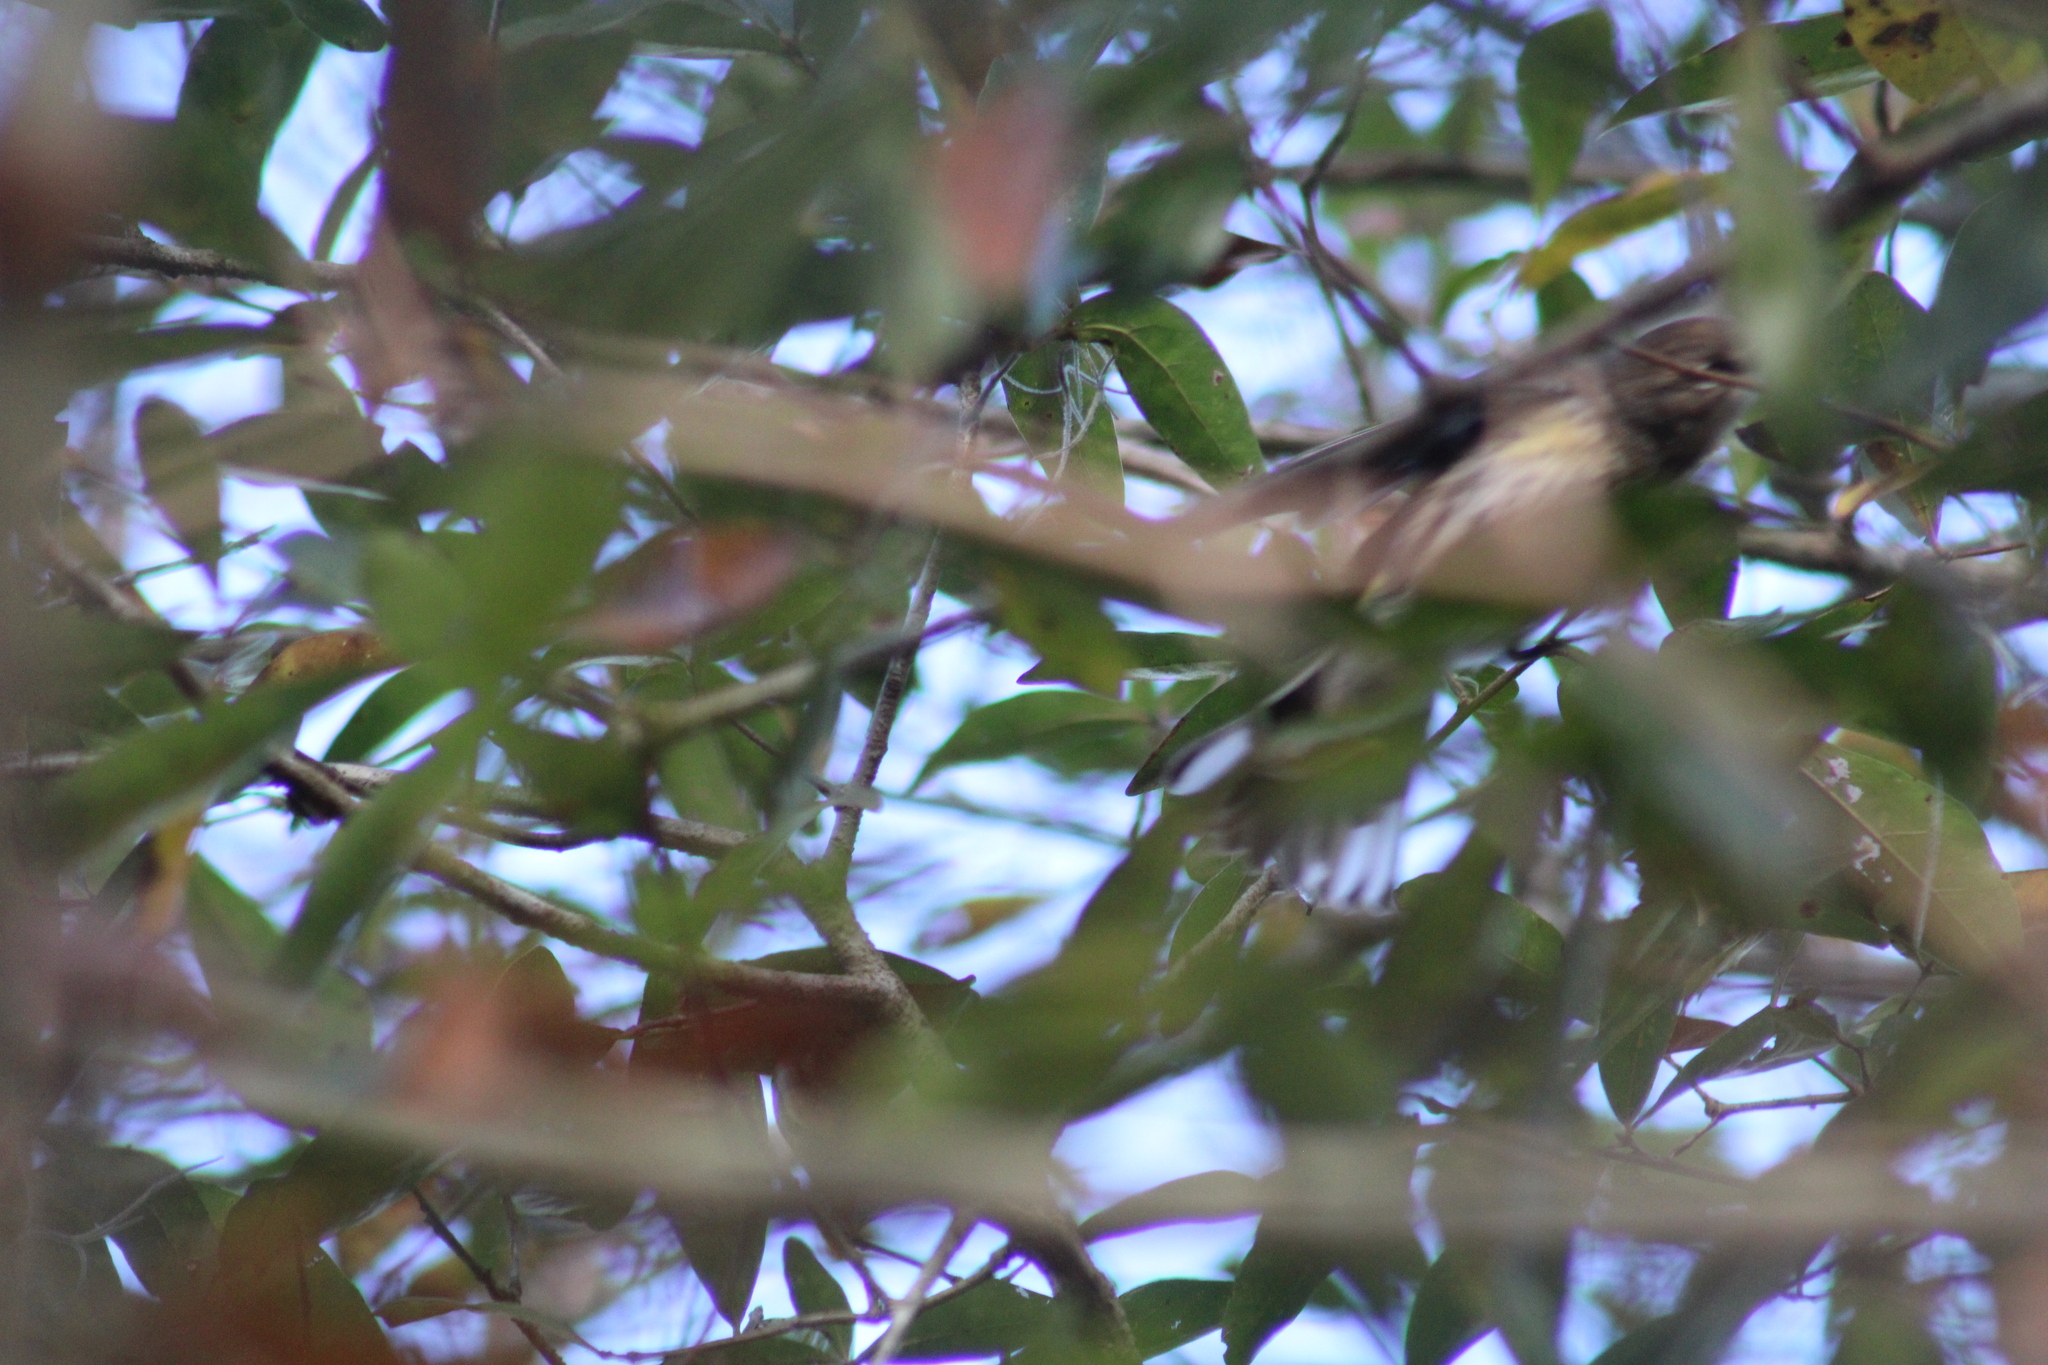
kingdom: Animalia
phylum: Chordata
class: Aves
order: Passeriformes
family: Parulidae
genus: Setophaga
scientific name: Setophaga coronata
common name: Myrtle warbler
